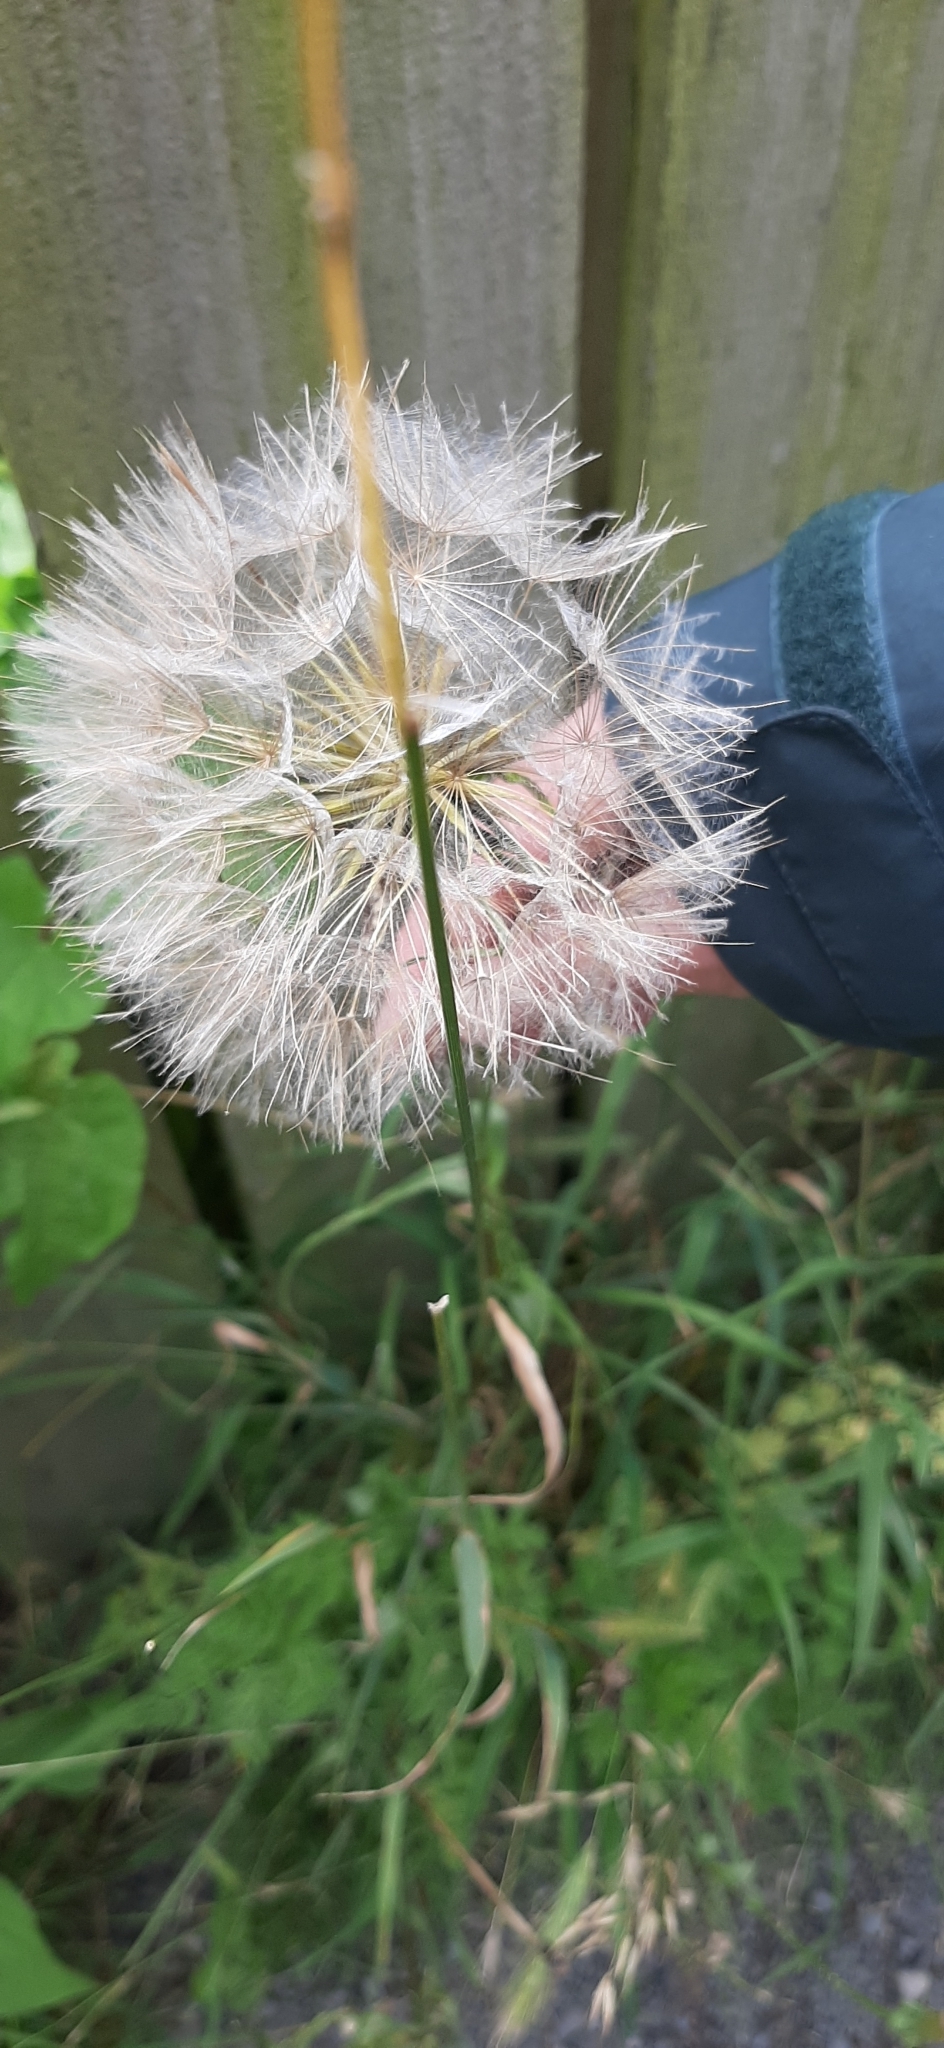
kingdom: Plantae
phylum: Tracheophyta
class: Magnoliopsida
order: Asterales
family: Asteraceae
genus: Tragopogon
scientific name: Tragopogon pratensis
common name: Goat's-beard
